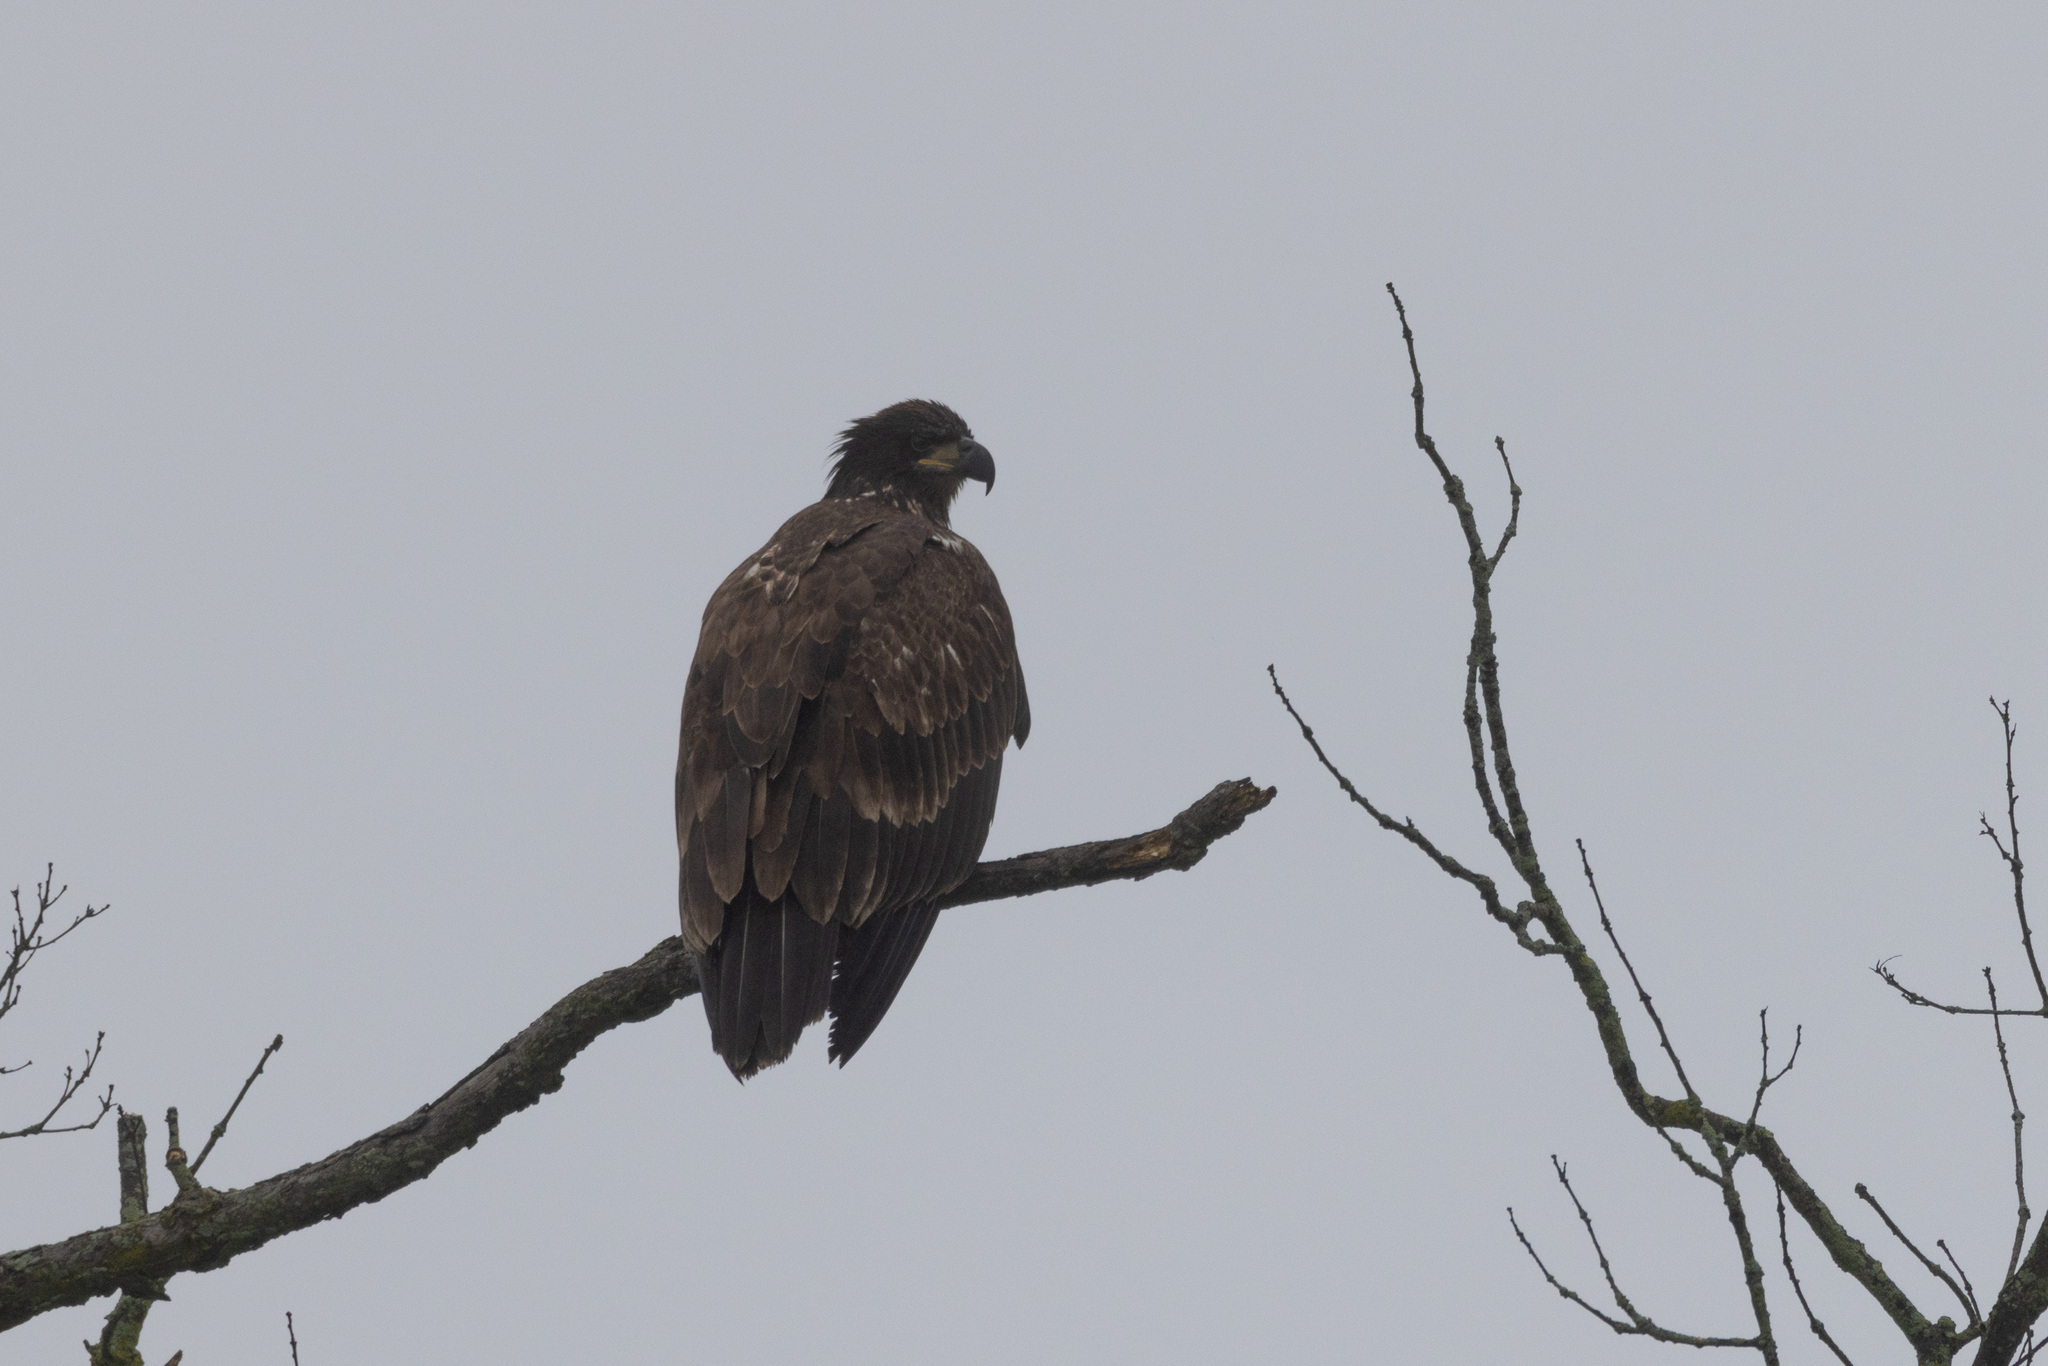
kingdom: Animalia
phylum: Chordata
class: Aves
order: Accipitriformes
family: Accipitridae
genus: Haliaeetus
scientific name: Haliaeetus leucocephalus
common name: Bald eagle
